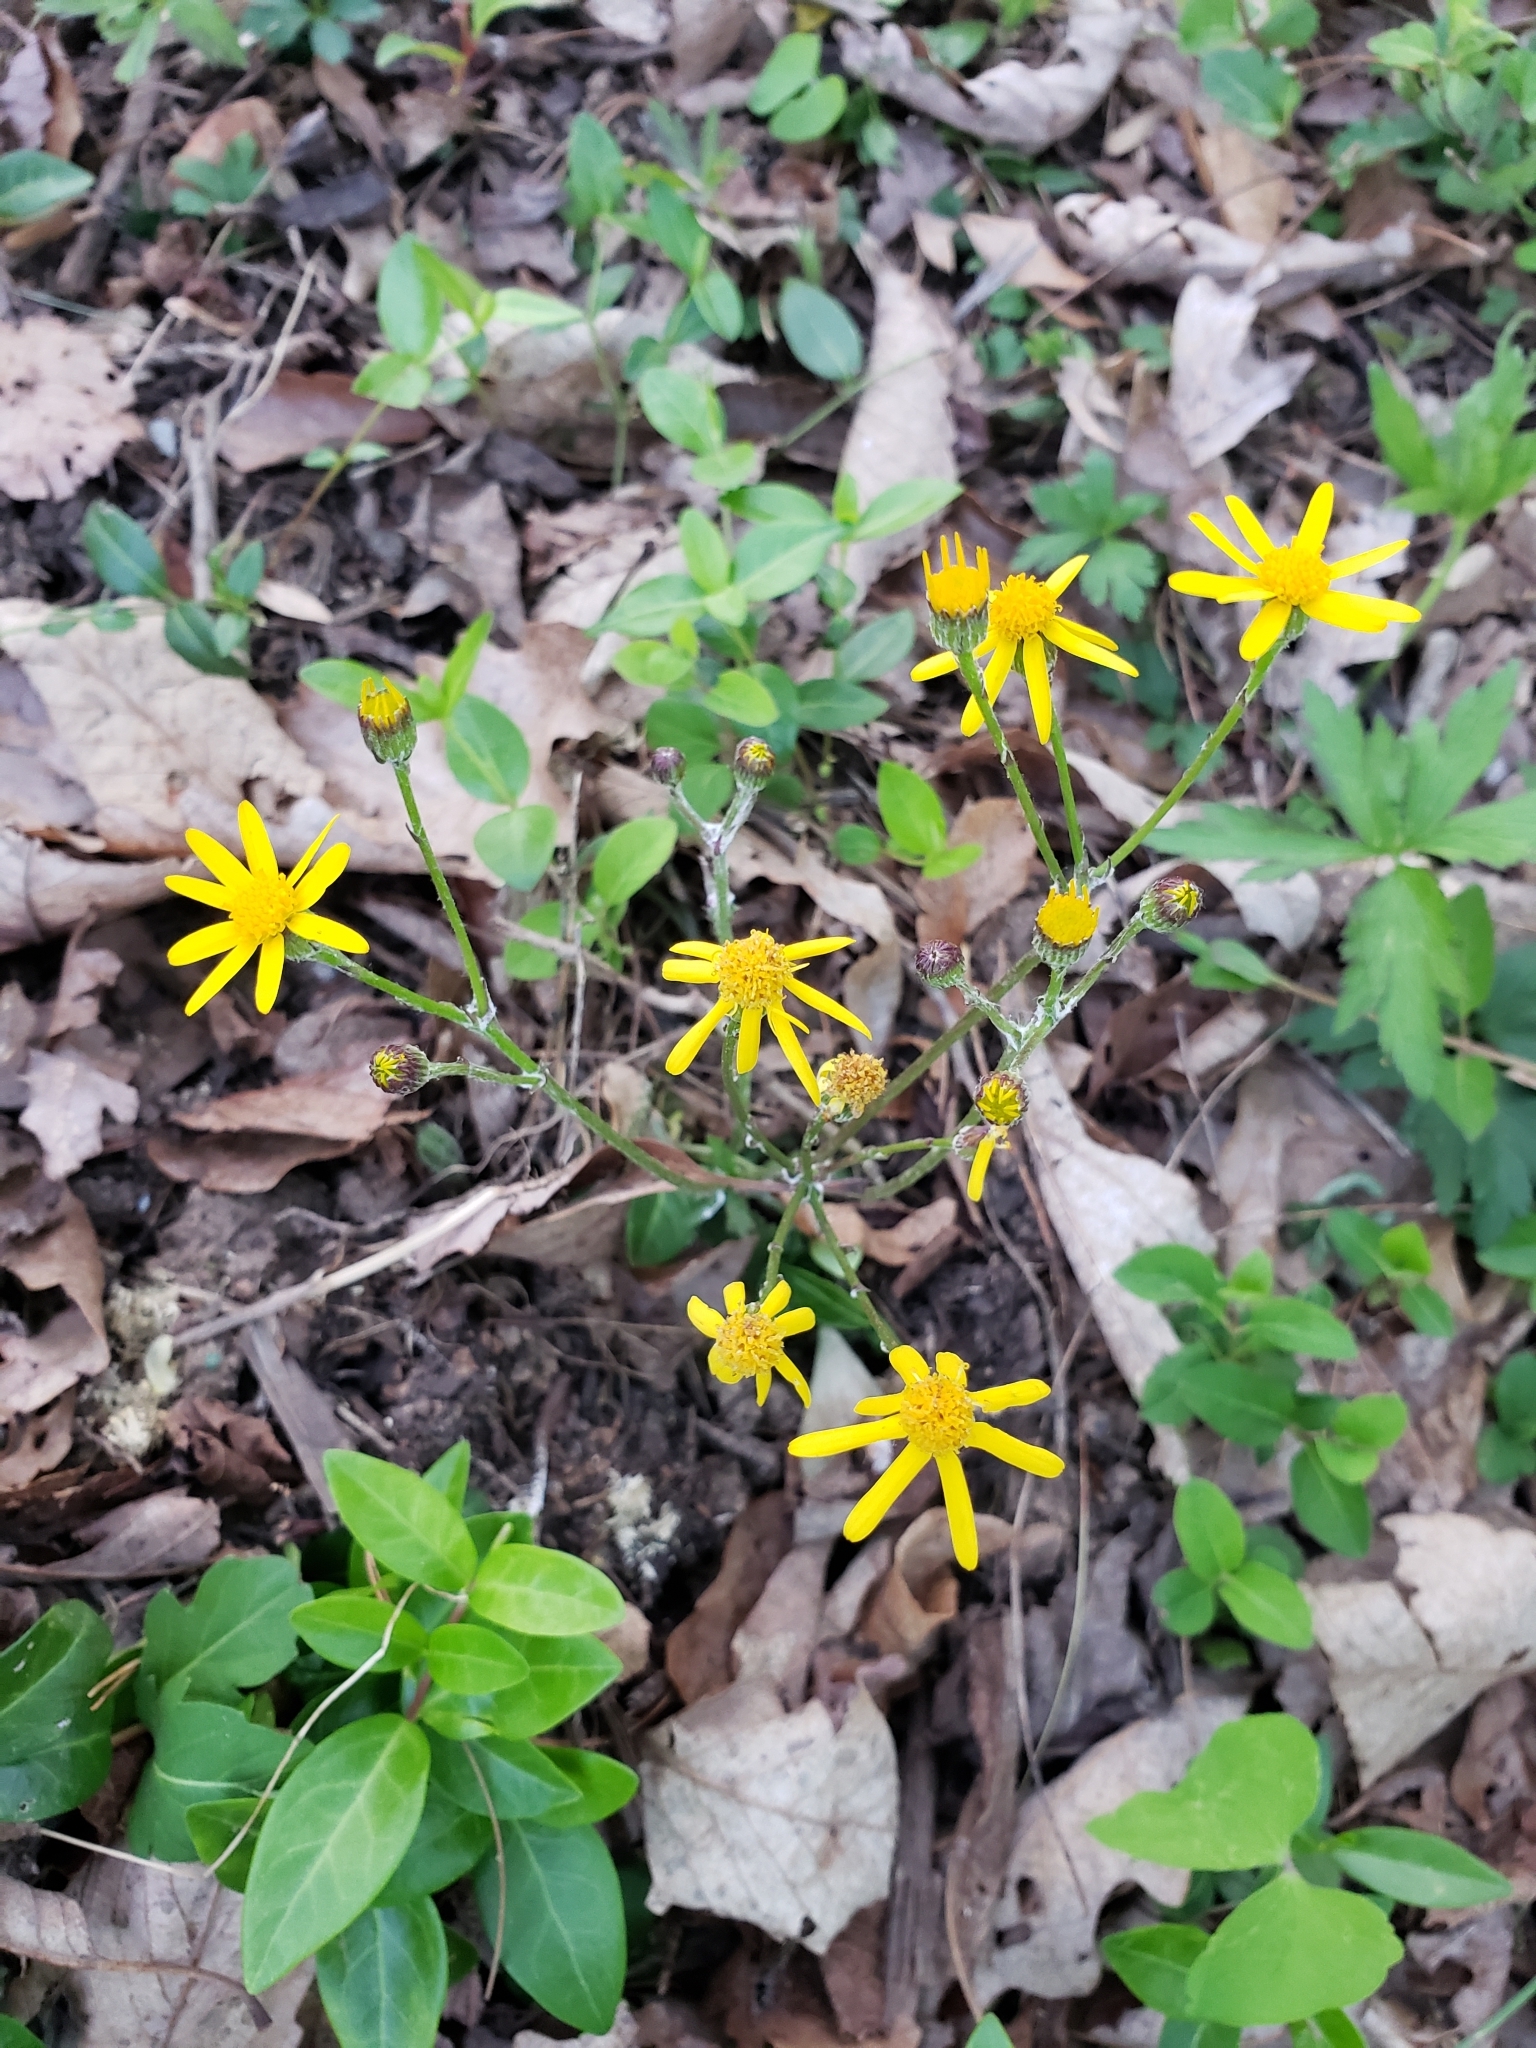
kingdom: Plantae
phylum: Tracheophyta
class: Magnoliopsida
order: Asterales
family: Asteraceae
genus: Packera
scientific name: Packera aurea
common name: Golden groundsel
